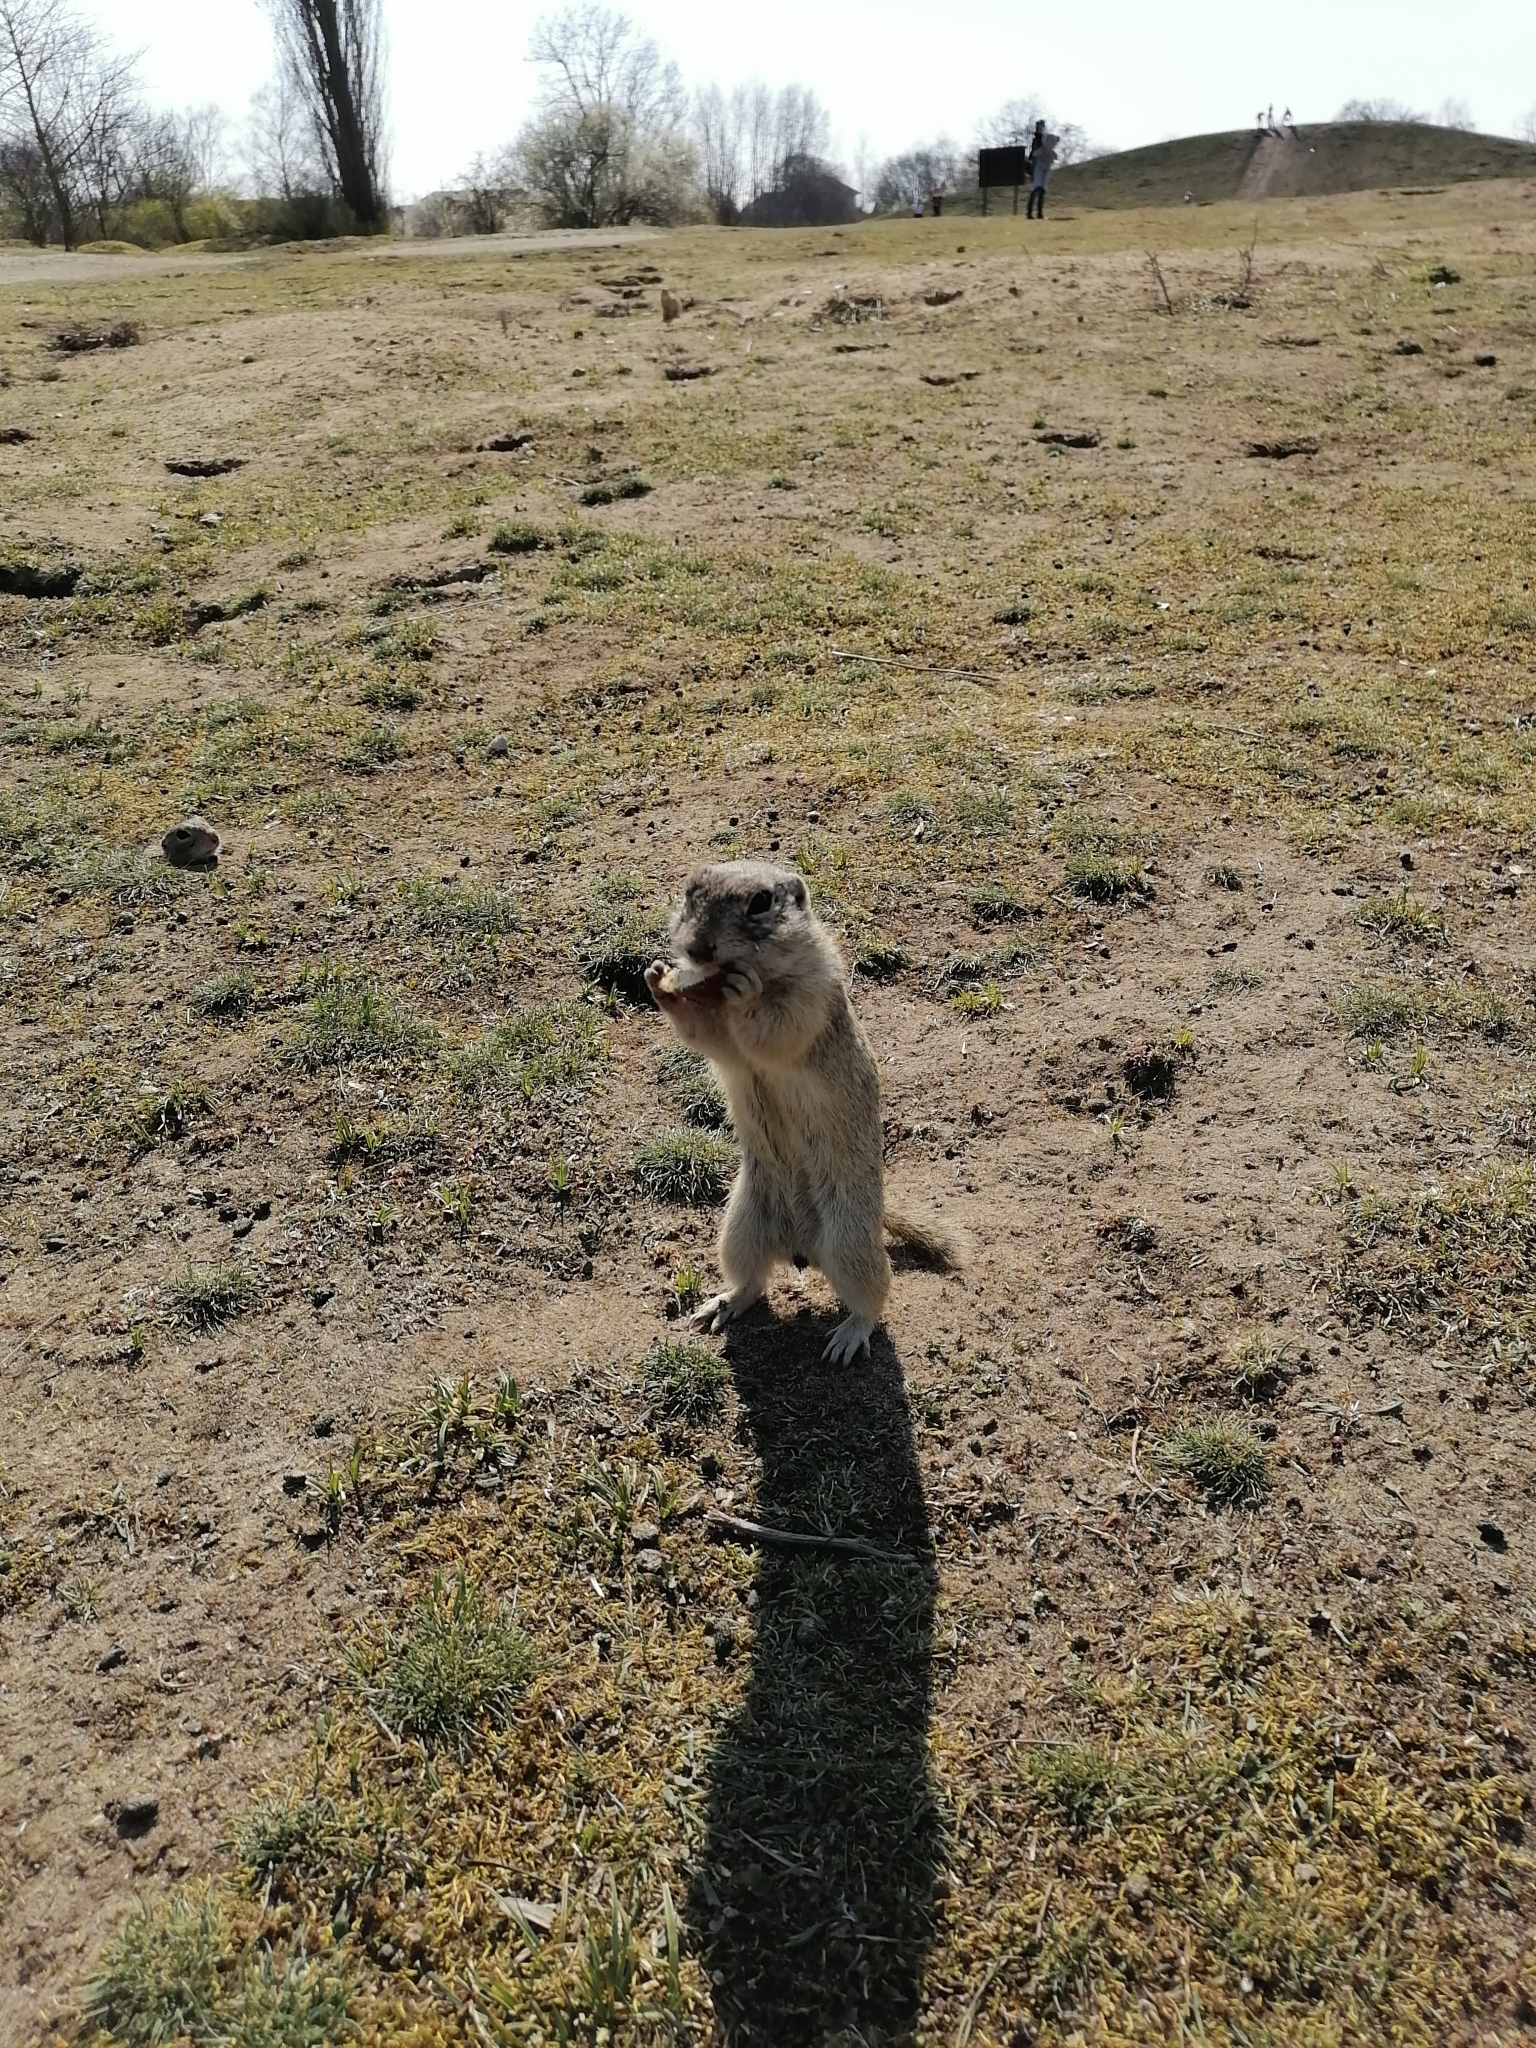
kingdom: Animalia
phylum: Chordata
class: Mammalia
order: Rodentia
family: Sciuridae
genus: Spermophilus
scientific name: Spermophilus citellus
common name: European ground squirrel
